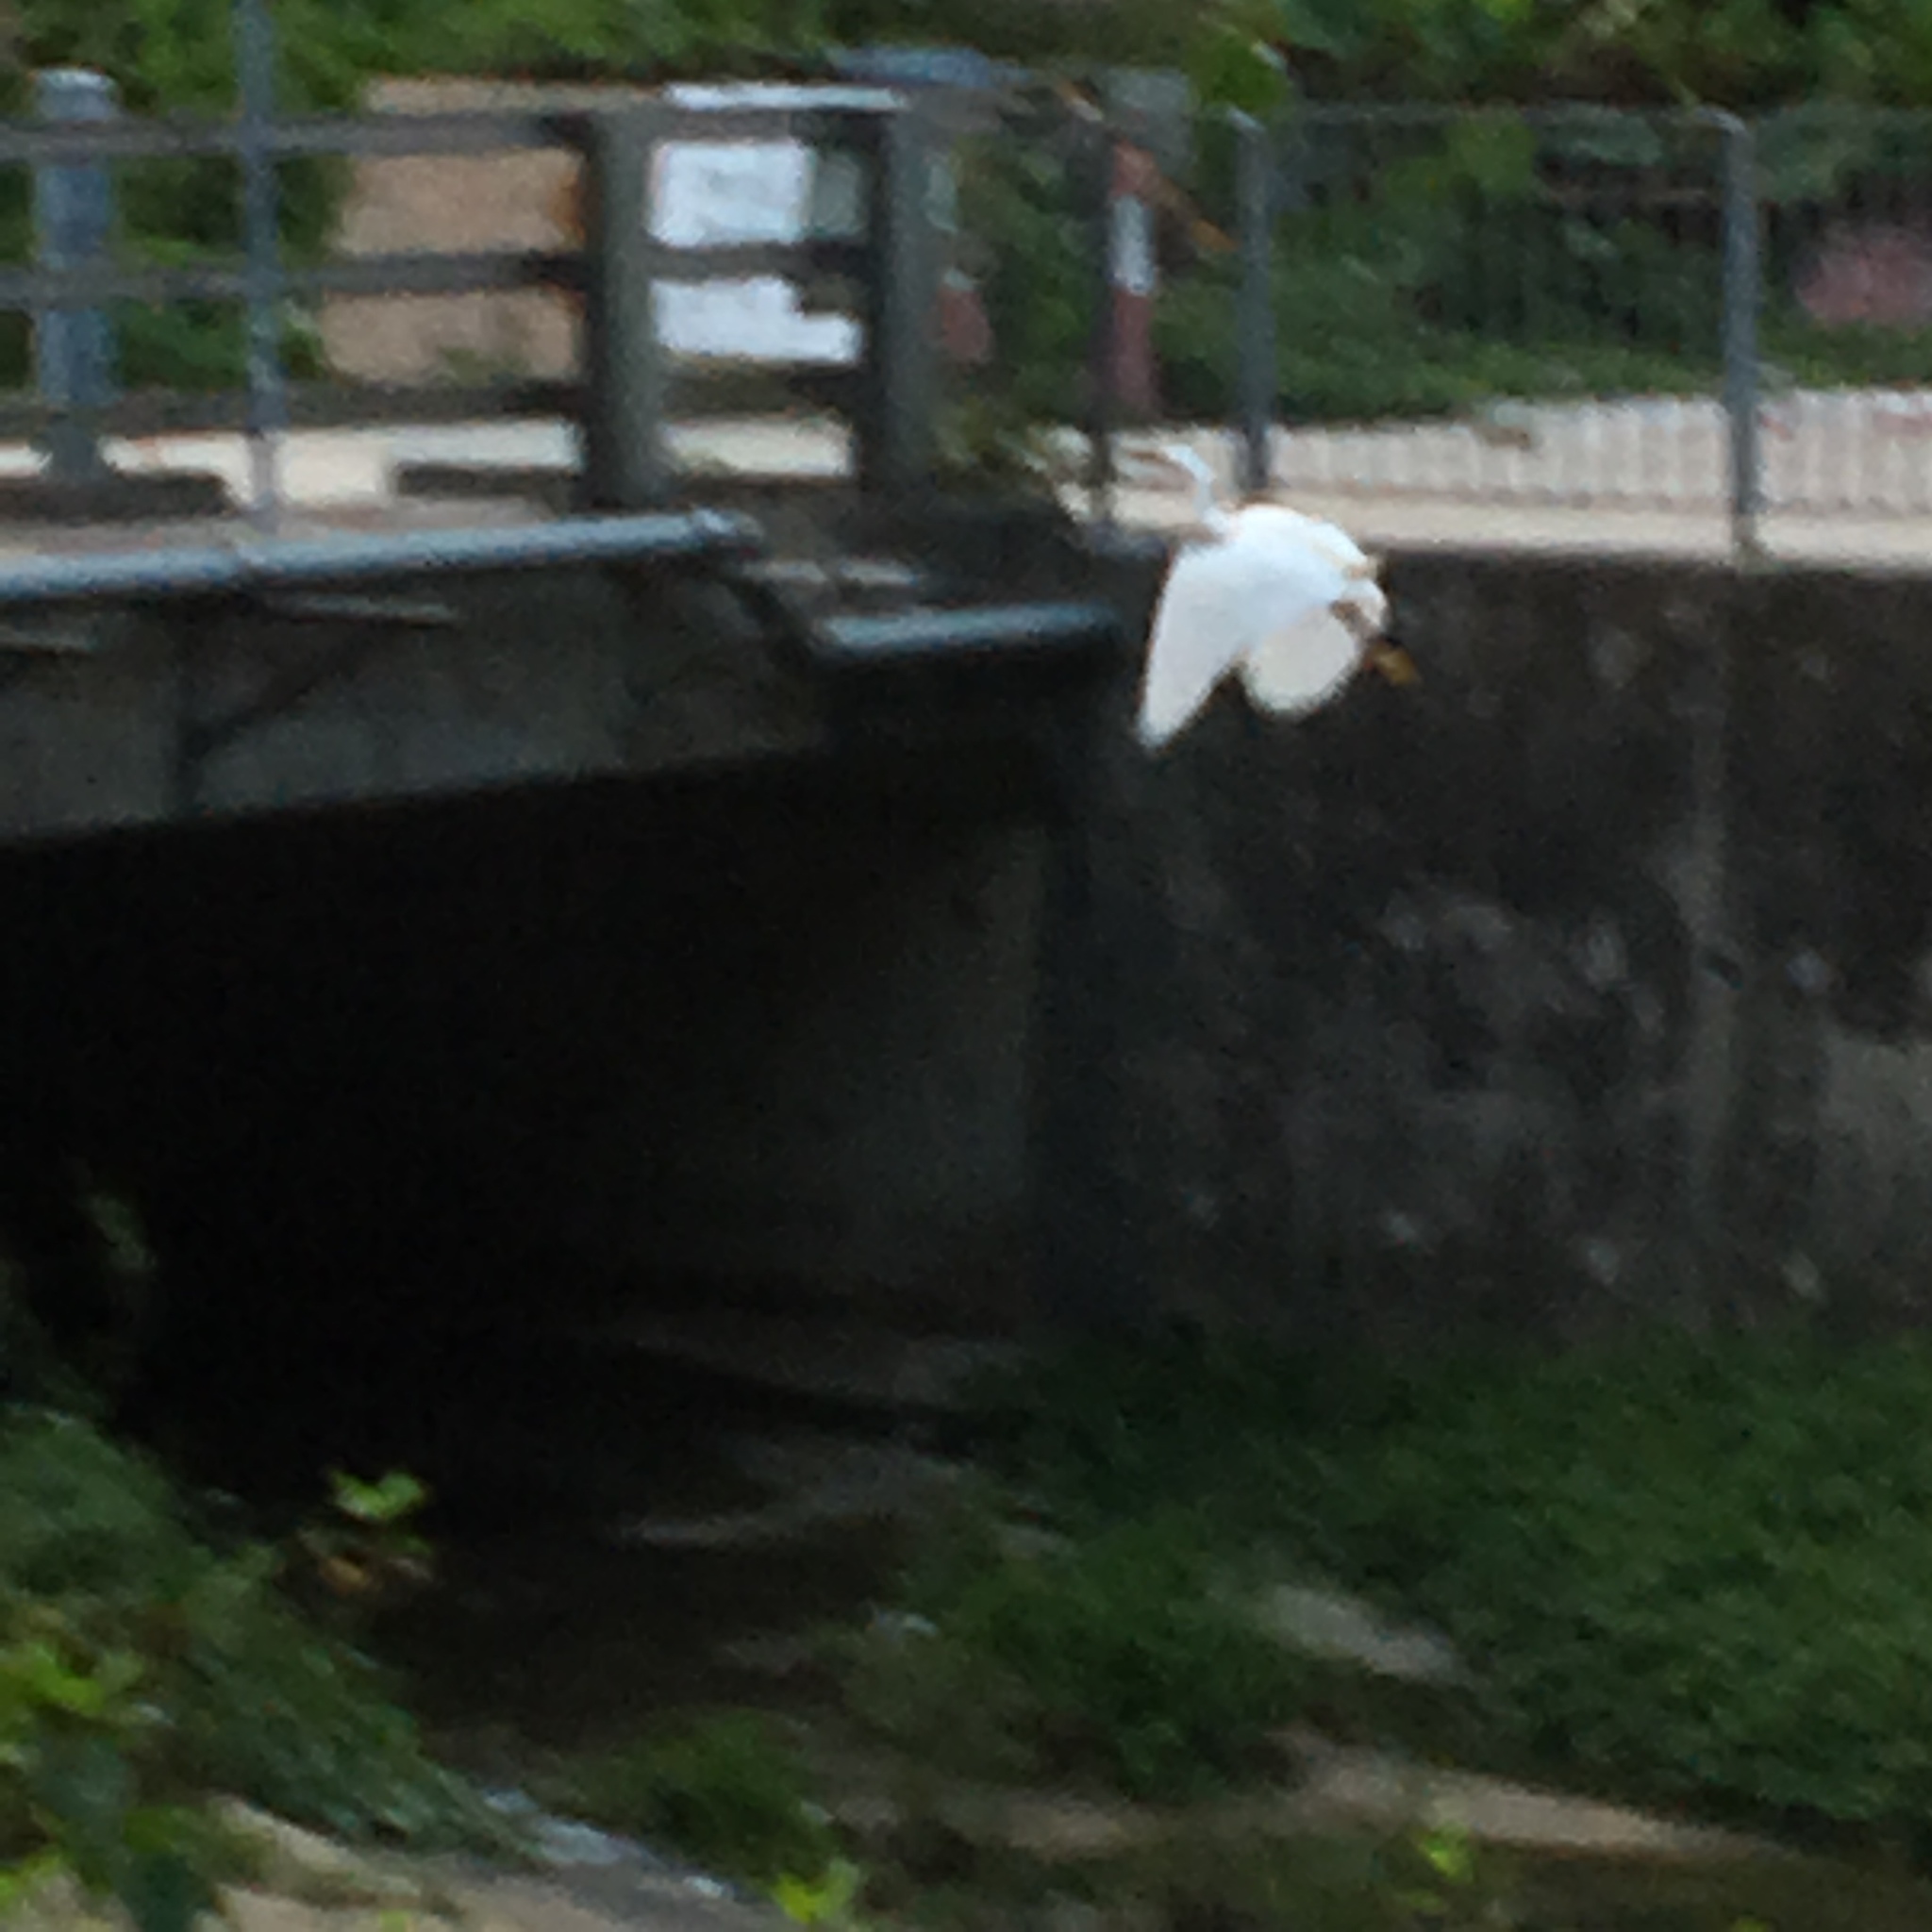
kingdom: Animalia
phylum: Chordata
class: Aves
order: Pelecaniformes
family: Ardeidae
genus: Egretta
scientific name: Egretta garzetta
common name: Little egret
